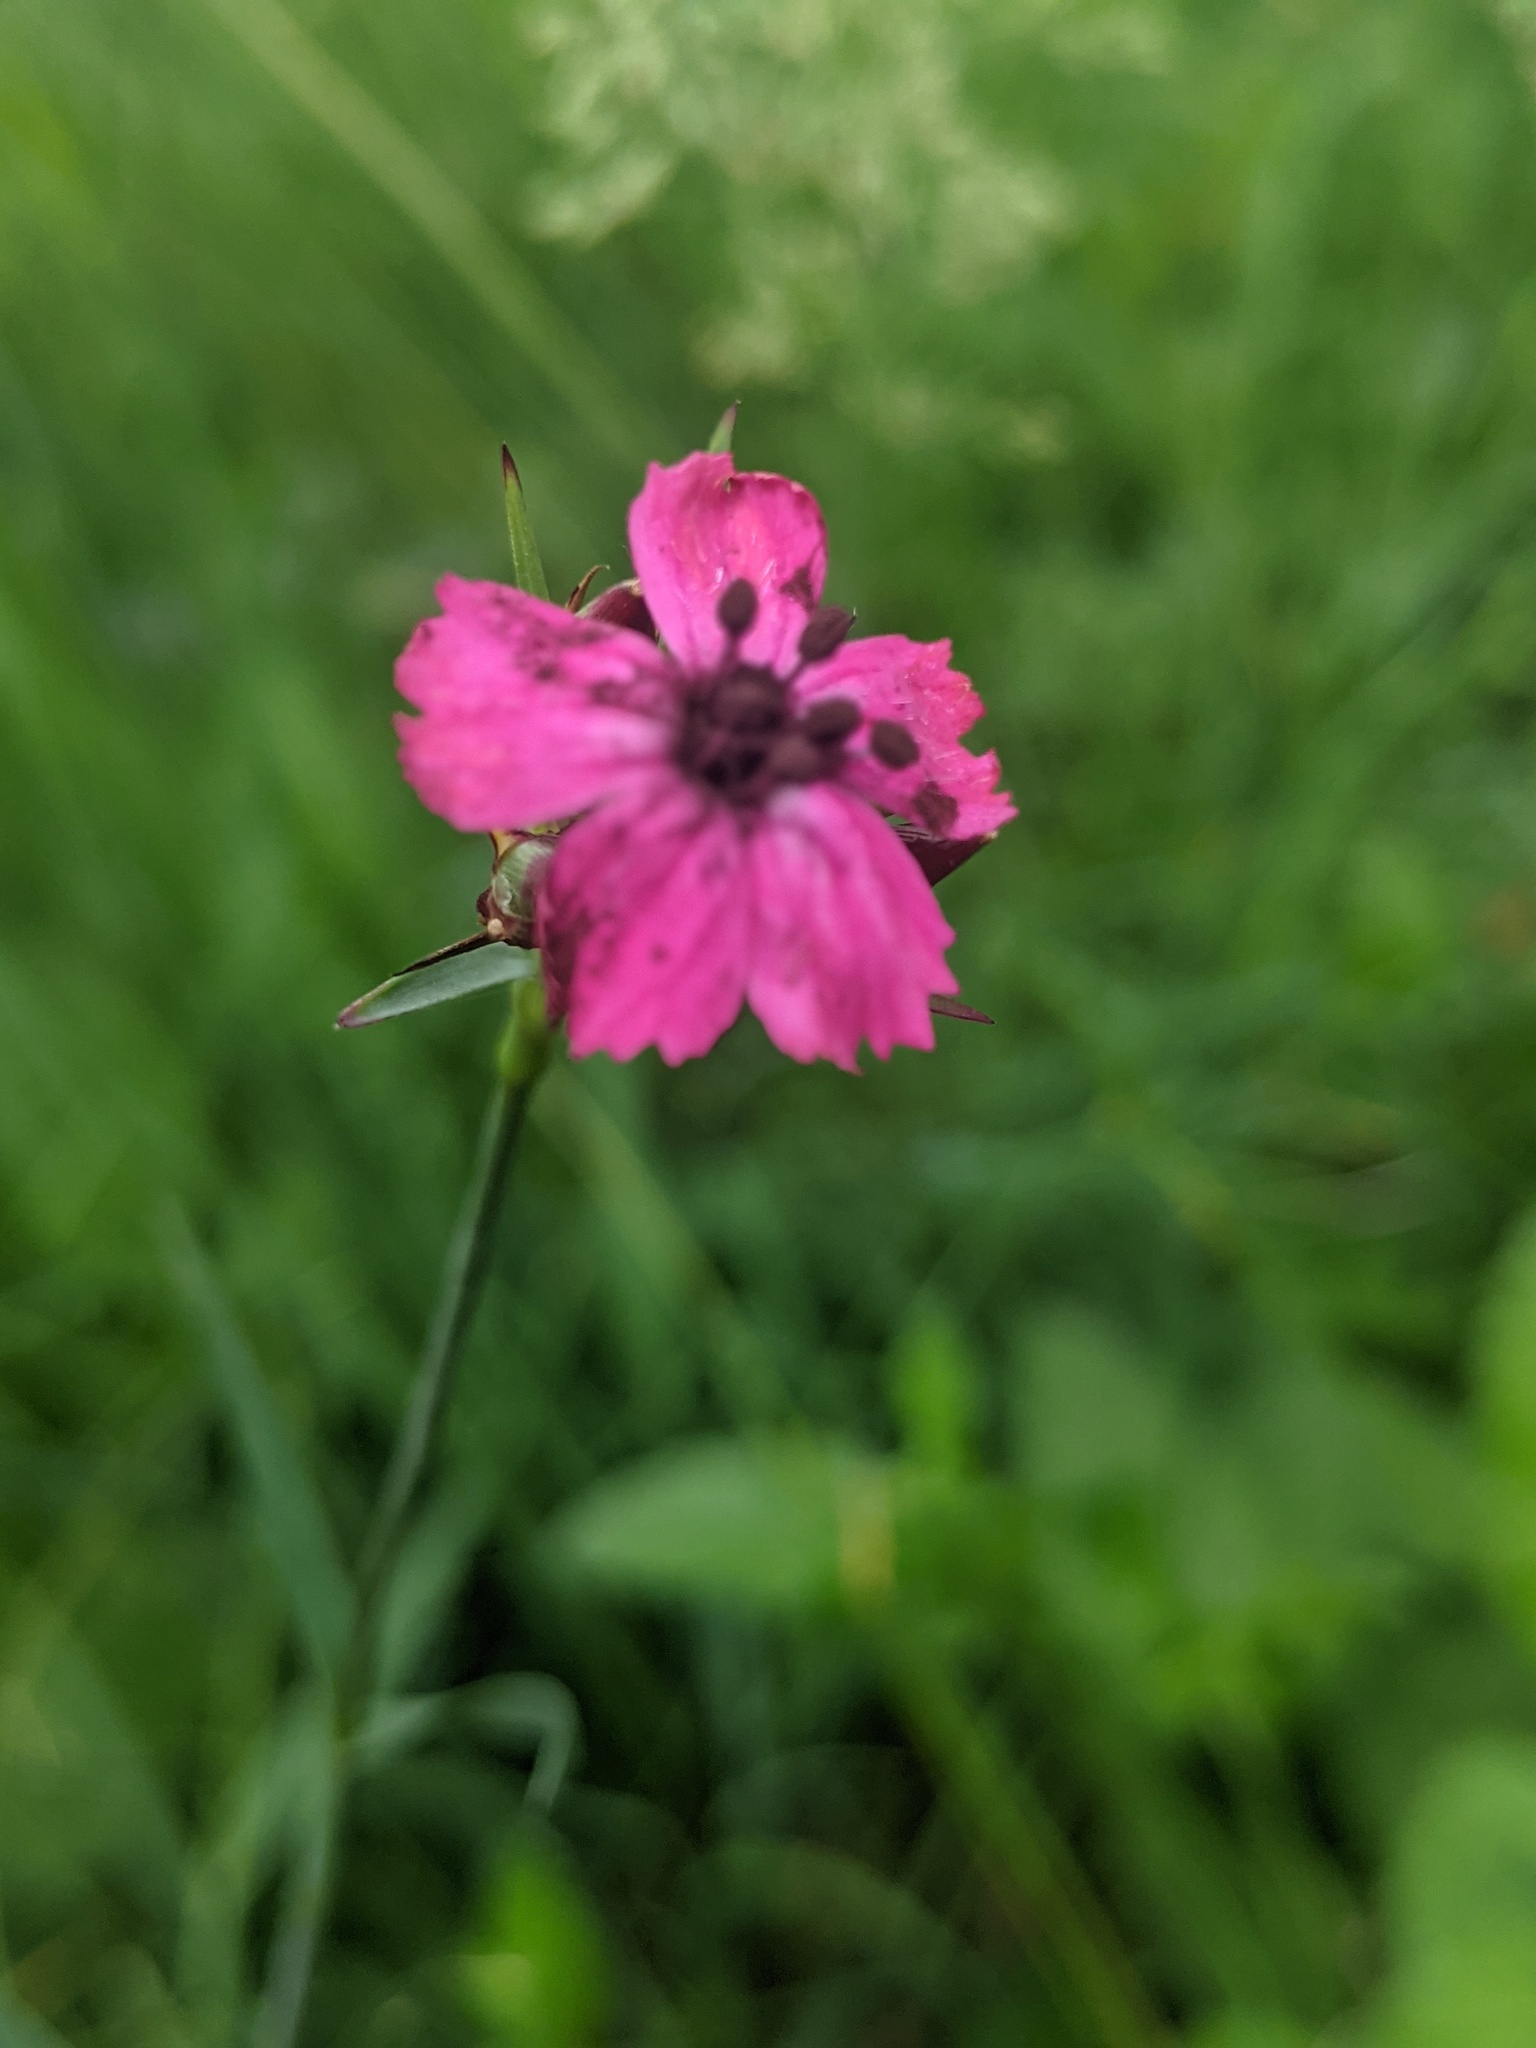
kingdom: Plantae
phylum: Tracheophyta
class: Magnoliopsida
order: Caryophyllales
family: Caryophyllaceae
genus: Dianthus
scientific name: Dianthus carthusianorum
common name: Carthusian pink
